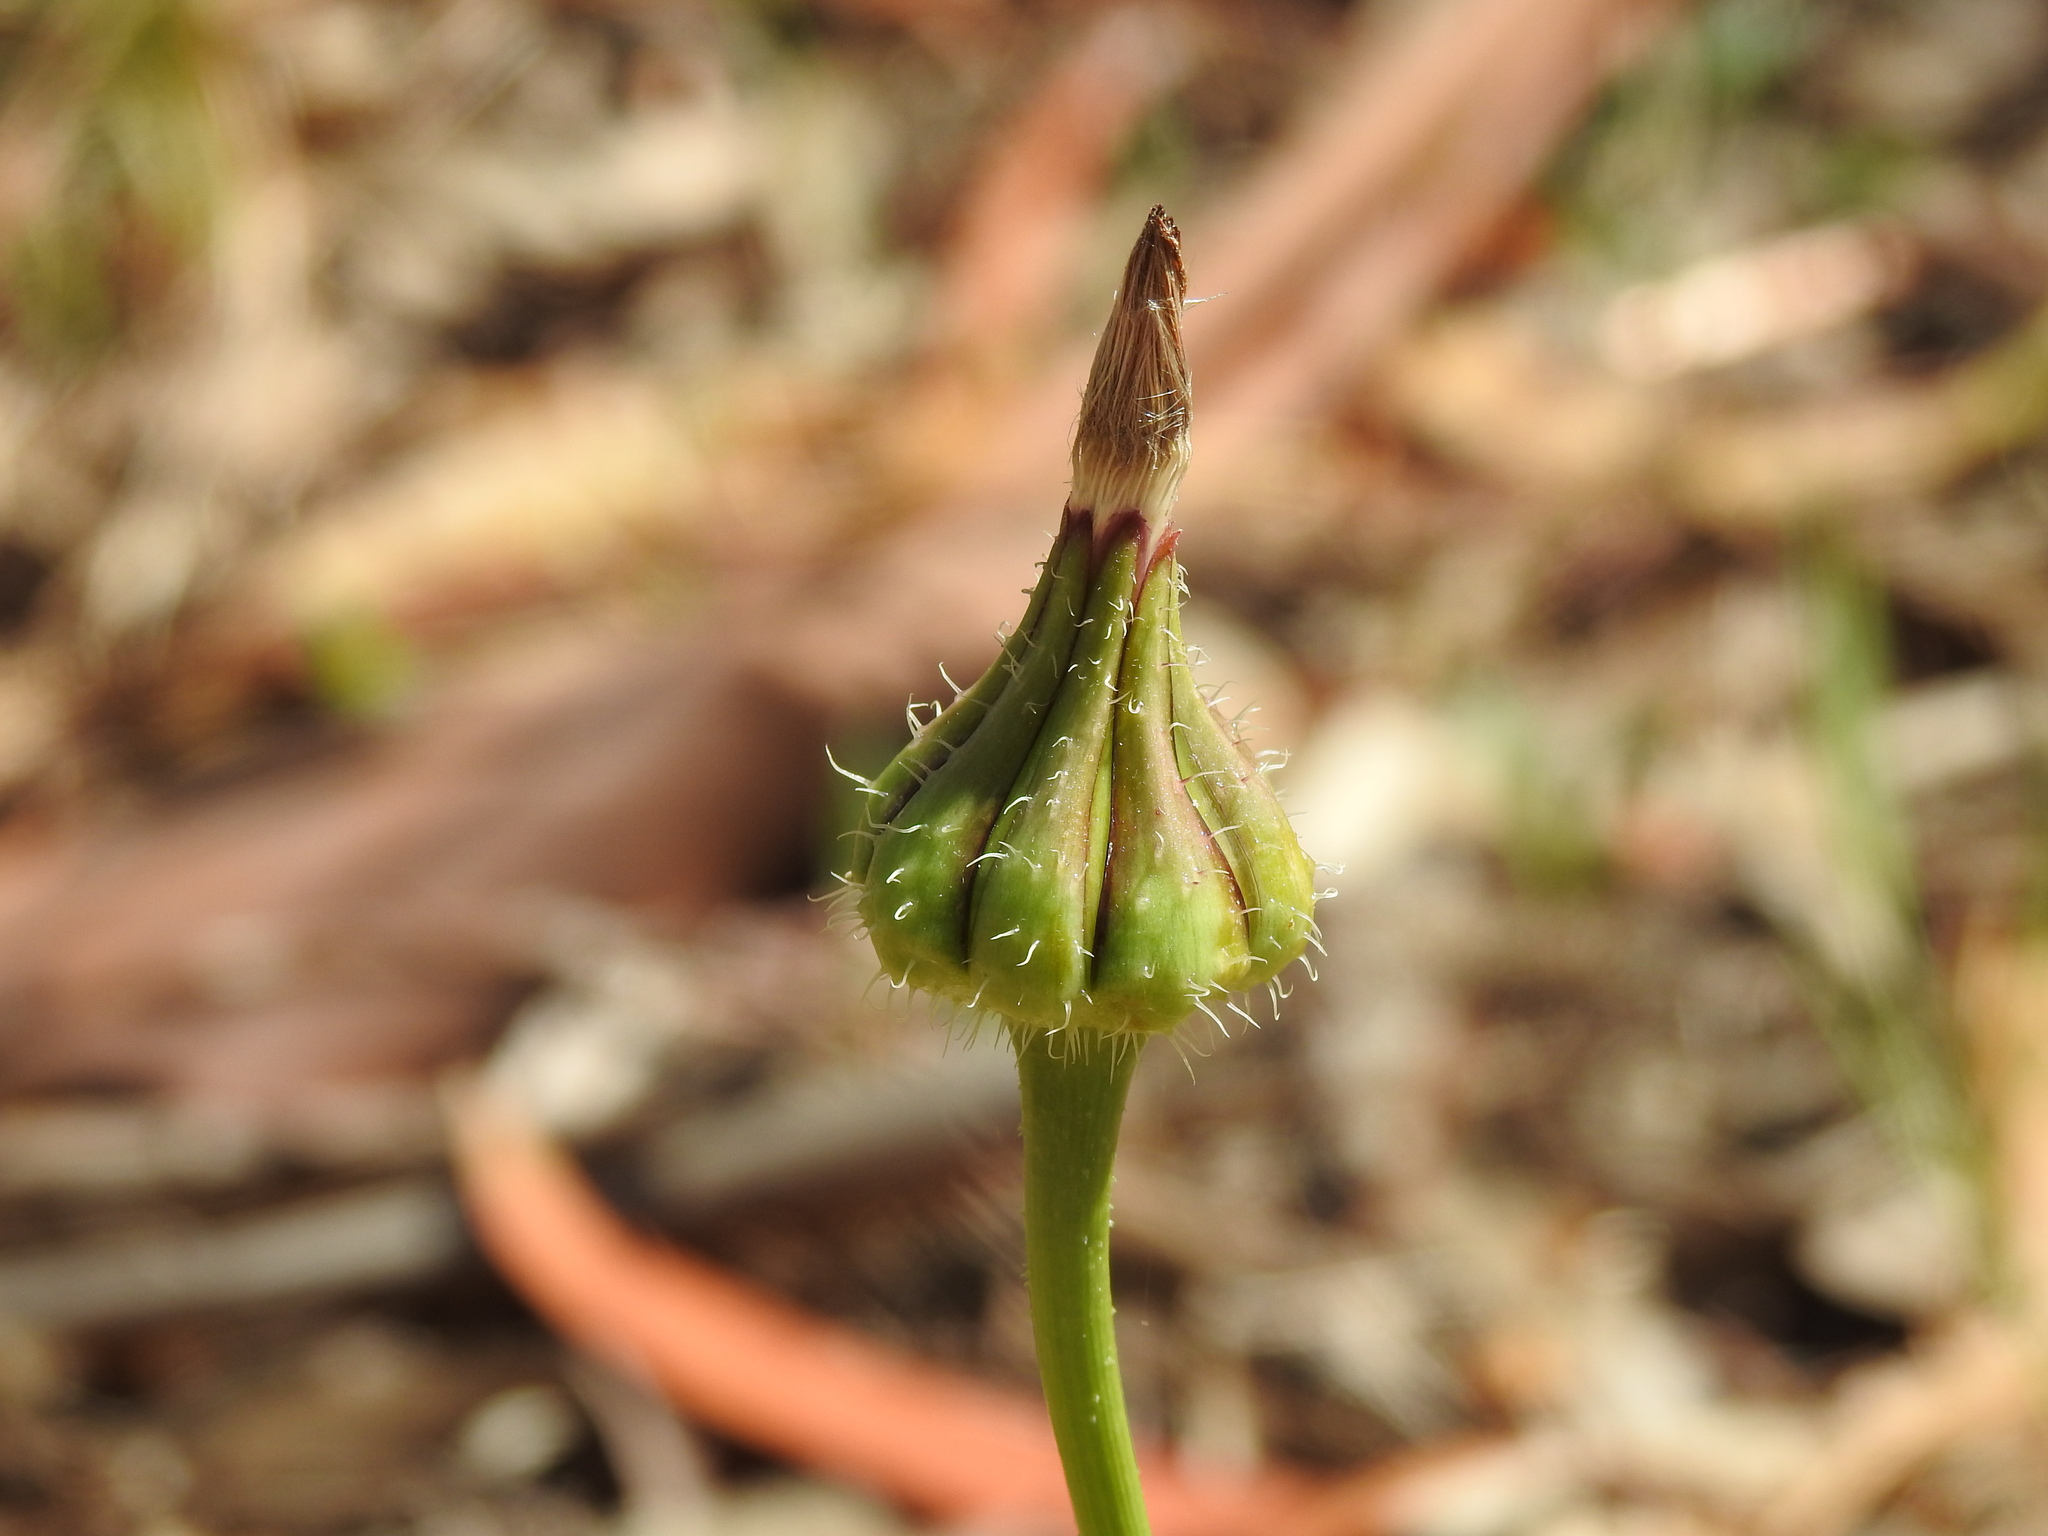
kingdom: Plantae
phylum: Tracheophyta
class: Magnoliopsida
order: Asterales
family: Asteraceae
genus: Urospermum
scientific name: Urospermum picroides
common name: False hawkbit
